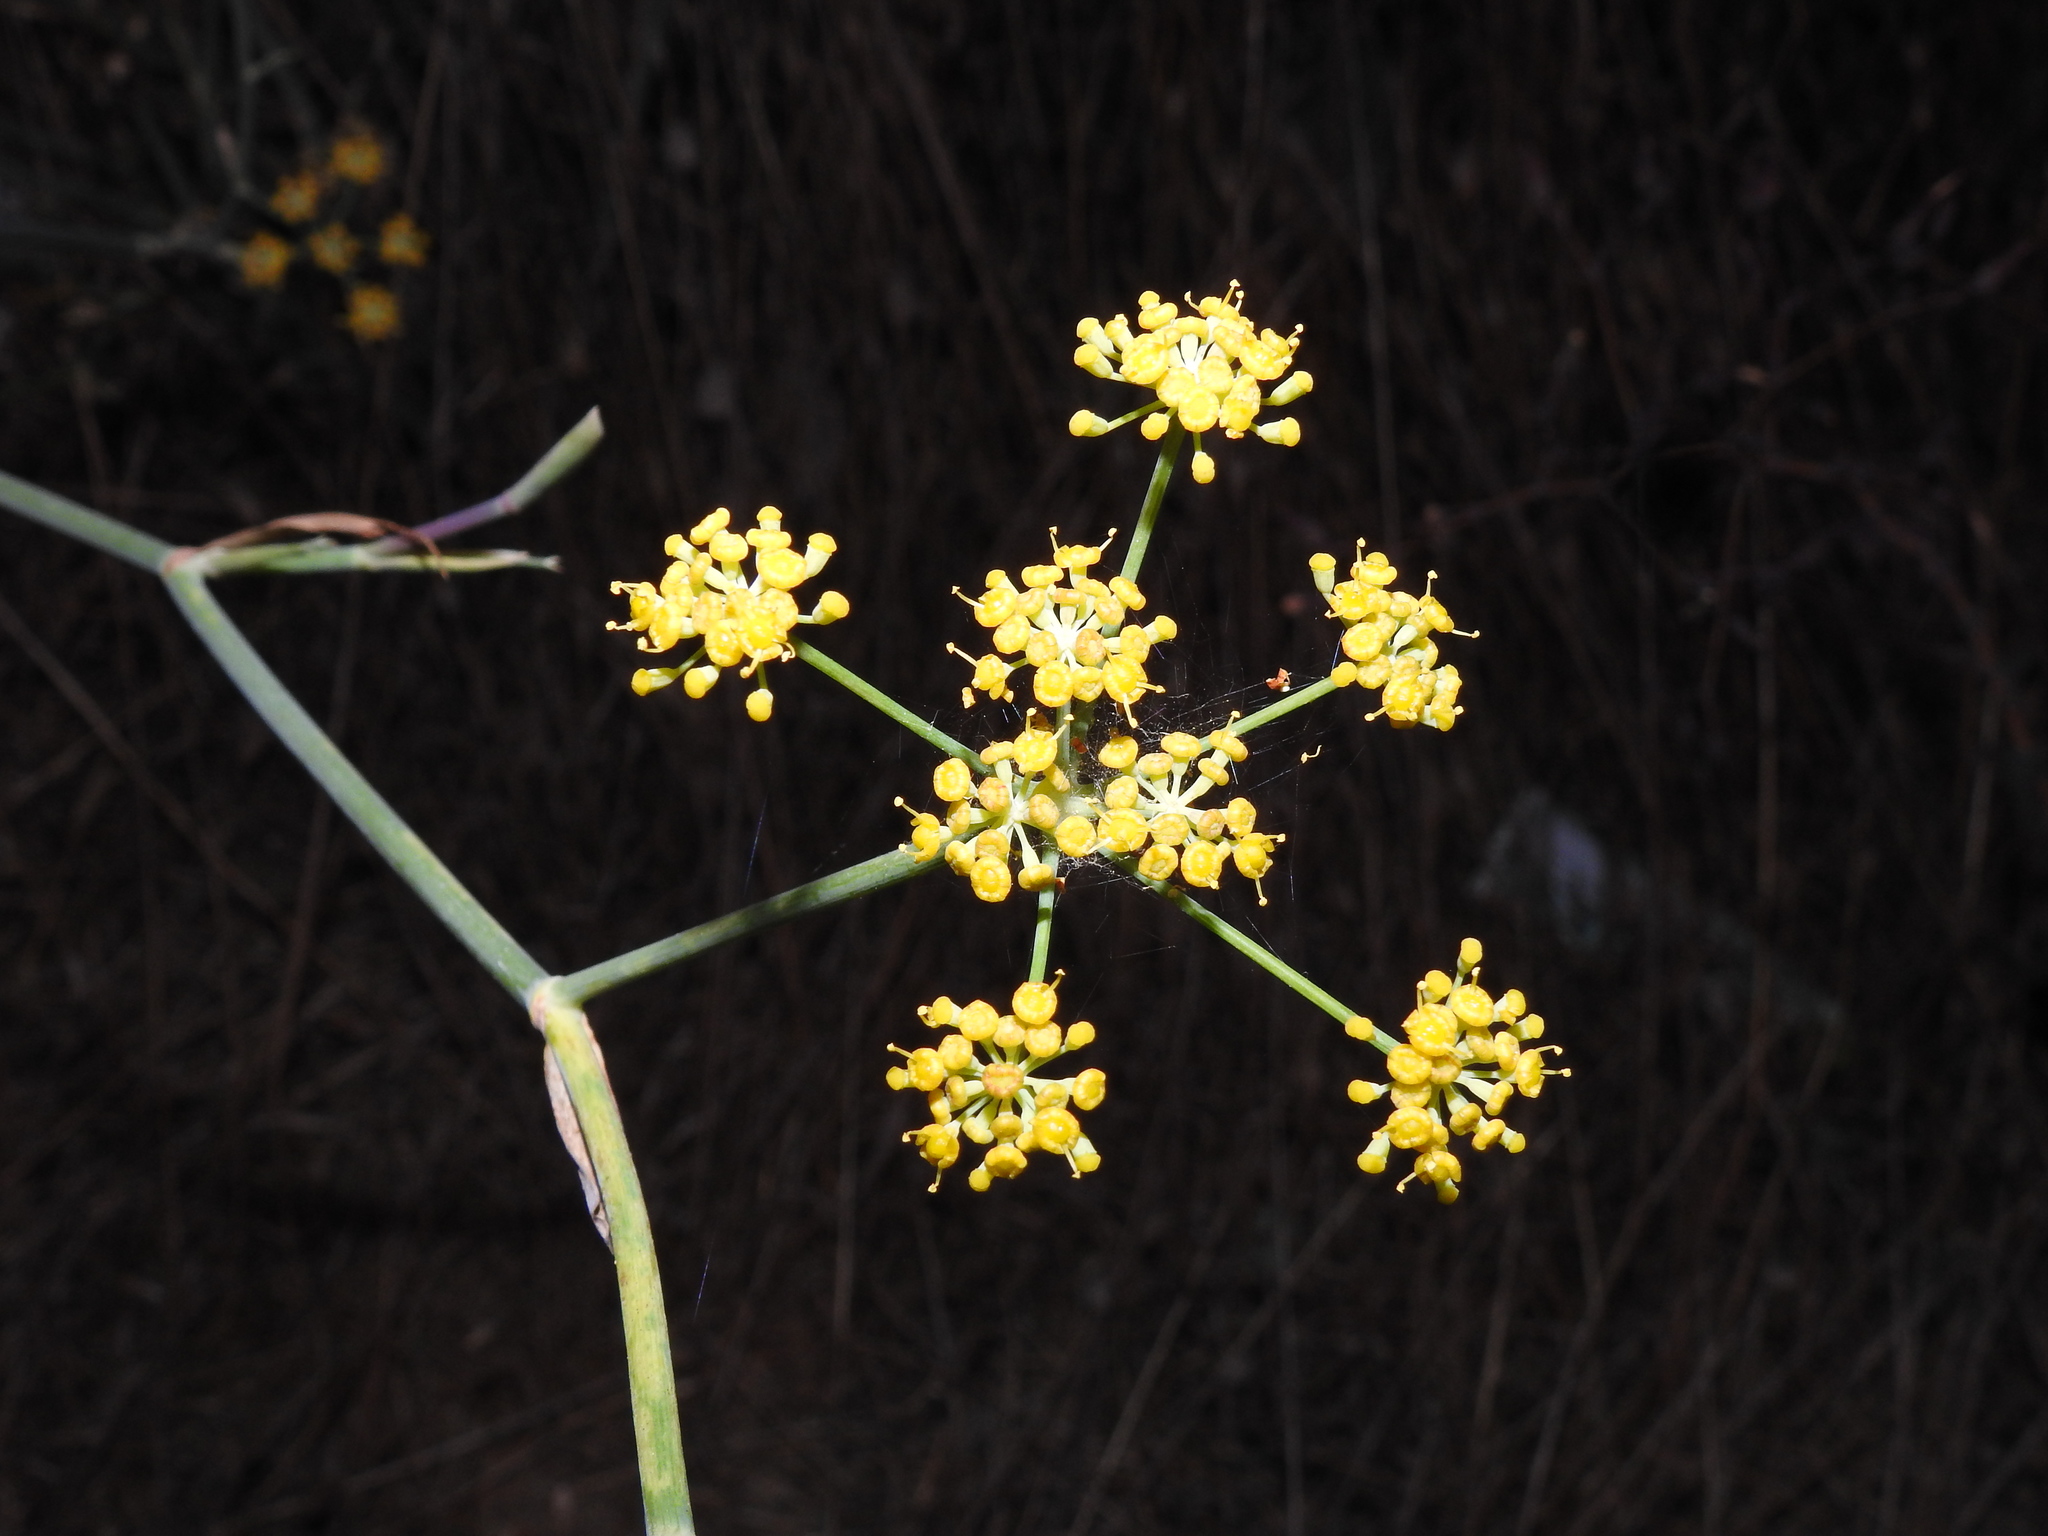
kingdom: Plantae
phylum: Tracheophyta
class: Magnoliopsida
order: Apiales
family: Apiaceae
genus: Foeniculum
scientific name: Foeniculum vulgare
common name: Fennel
